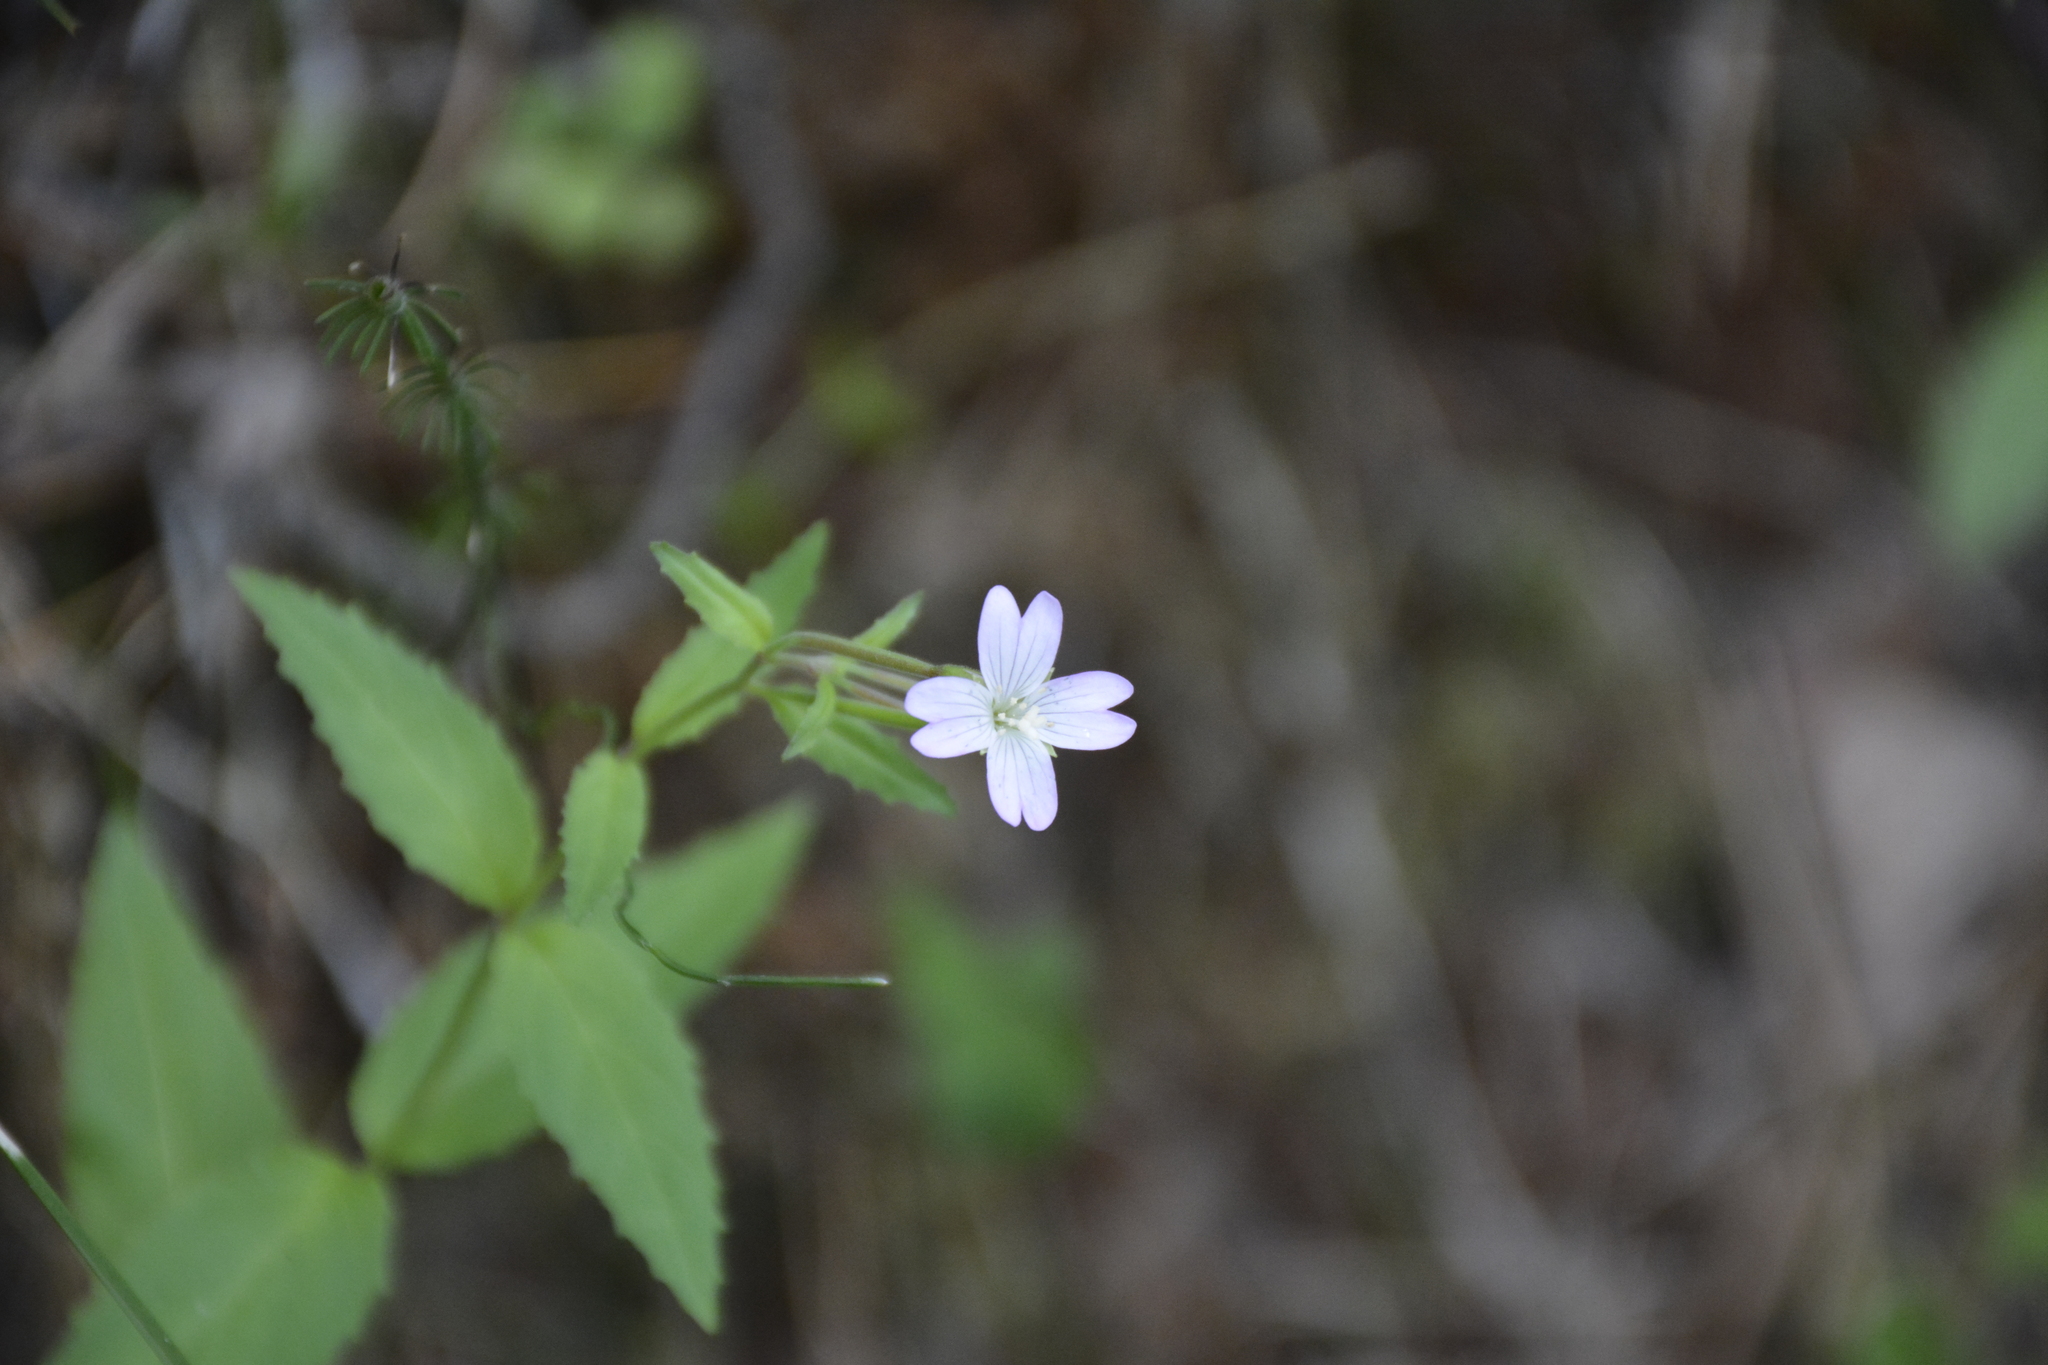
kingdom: Plantae
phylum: Tracheophyta
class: Magnoliopsida
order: Myrtales
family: Onagraceae
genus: Epilobium
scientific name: Epilobium montanum
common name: Broad-leaved willowherb
